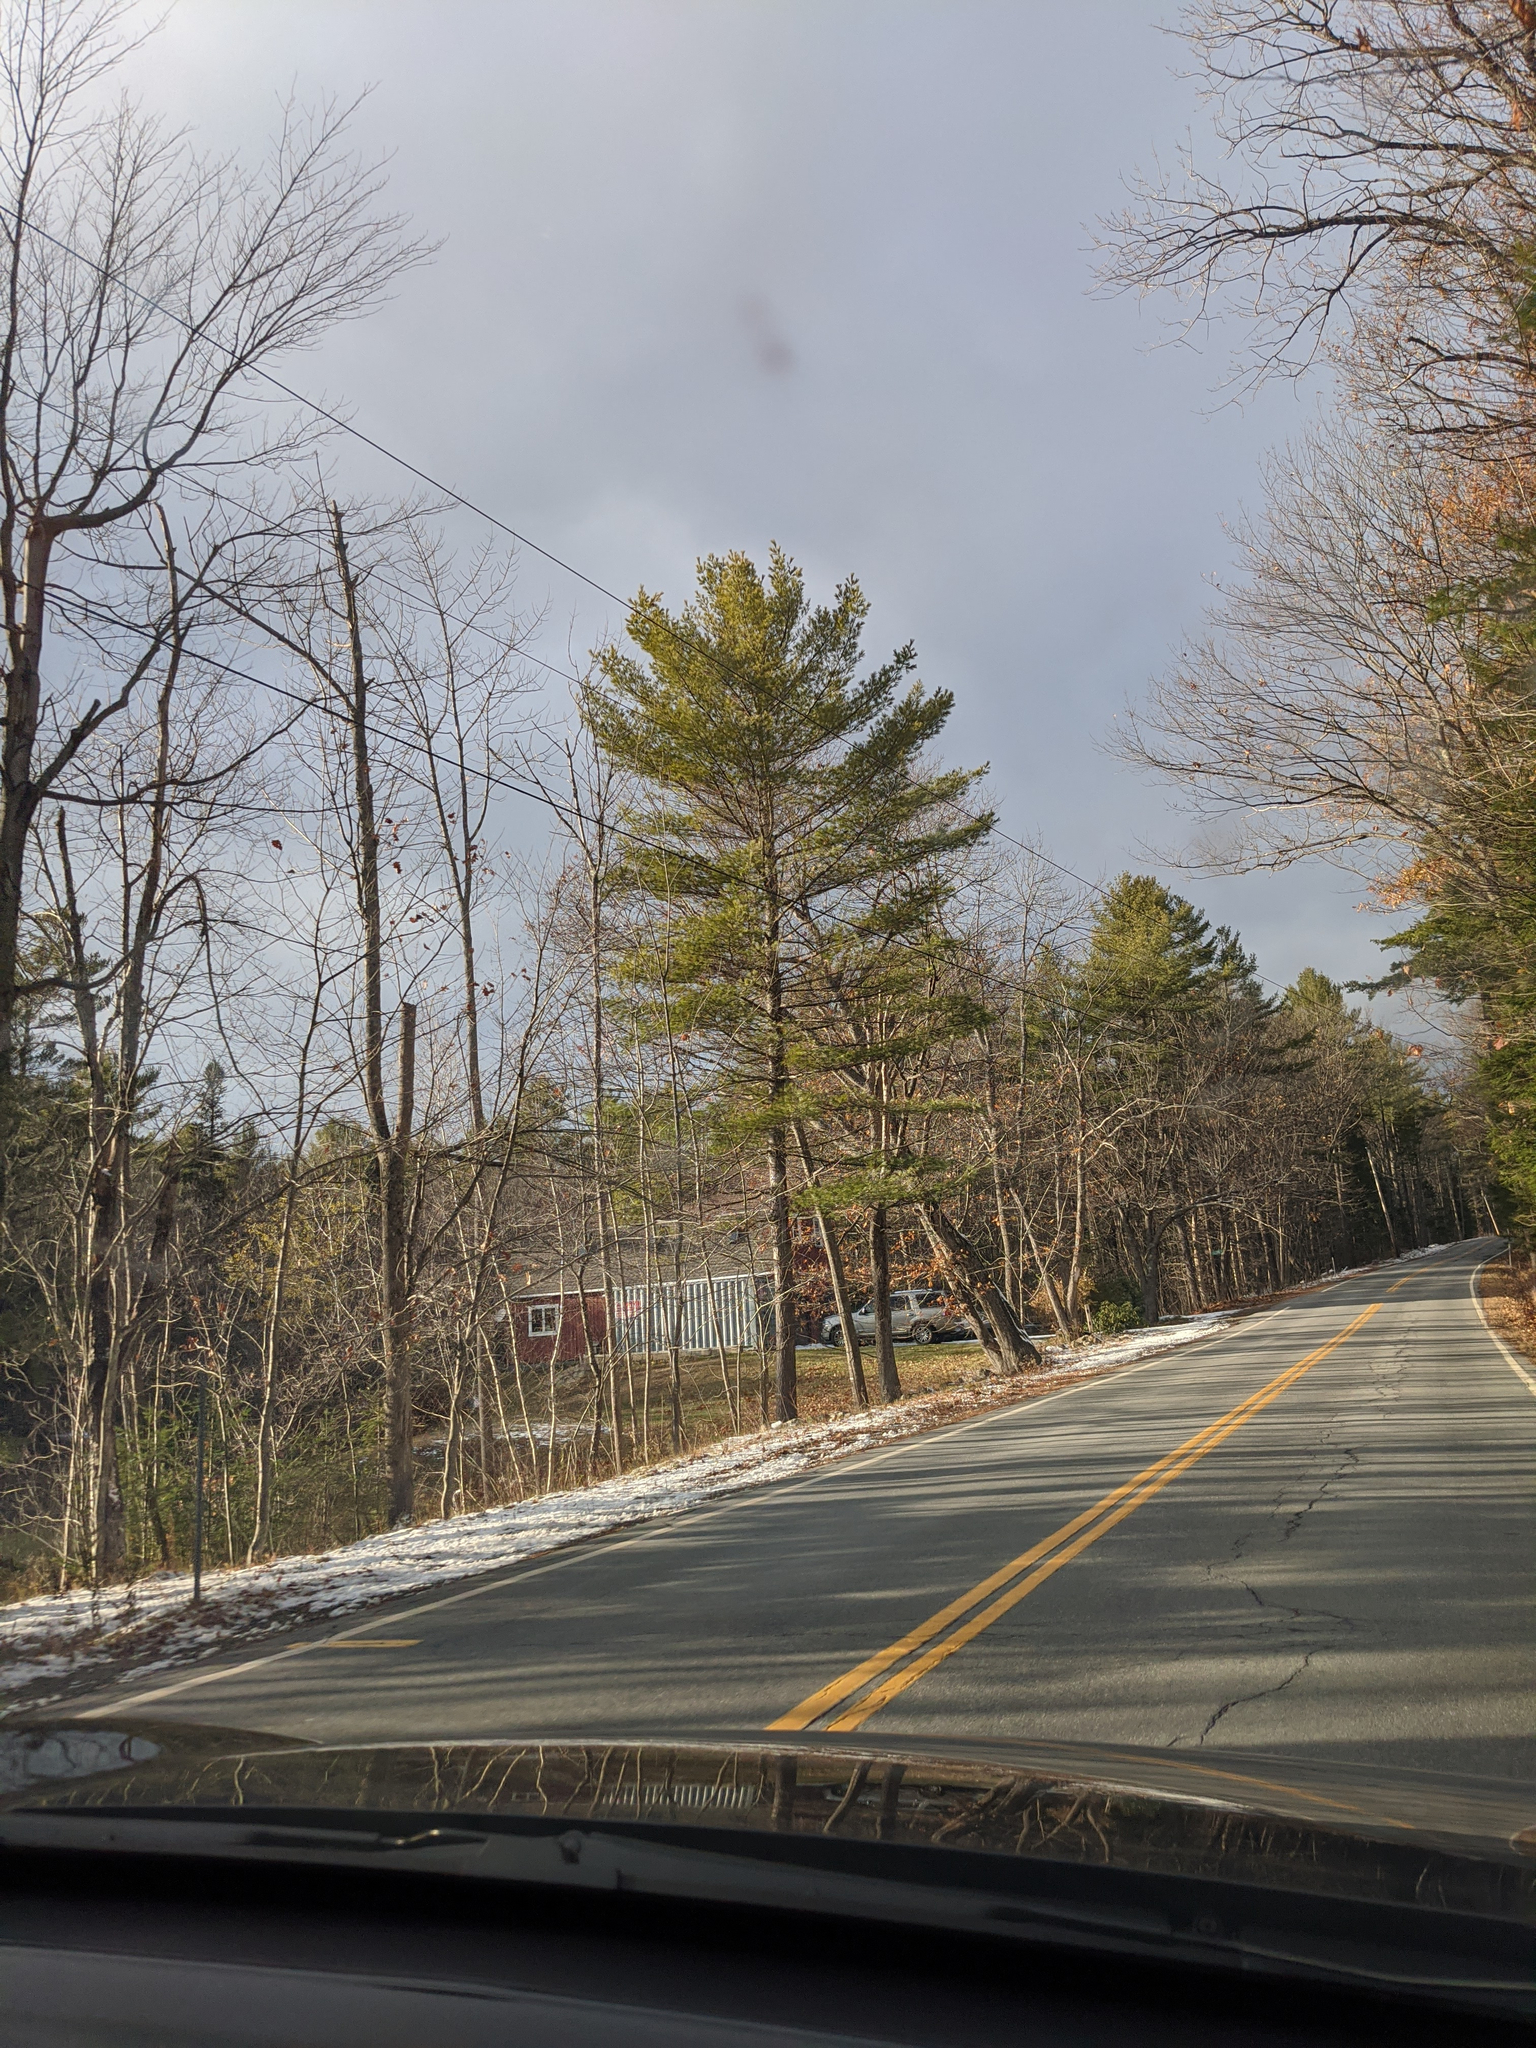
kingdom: Plantae
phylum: Tracheophyta
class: Pinopsida
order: Pinales
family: Pinaceae
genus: Pinus
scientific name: Pinus strobus
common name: Weymouth pine
